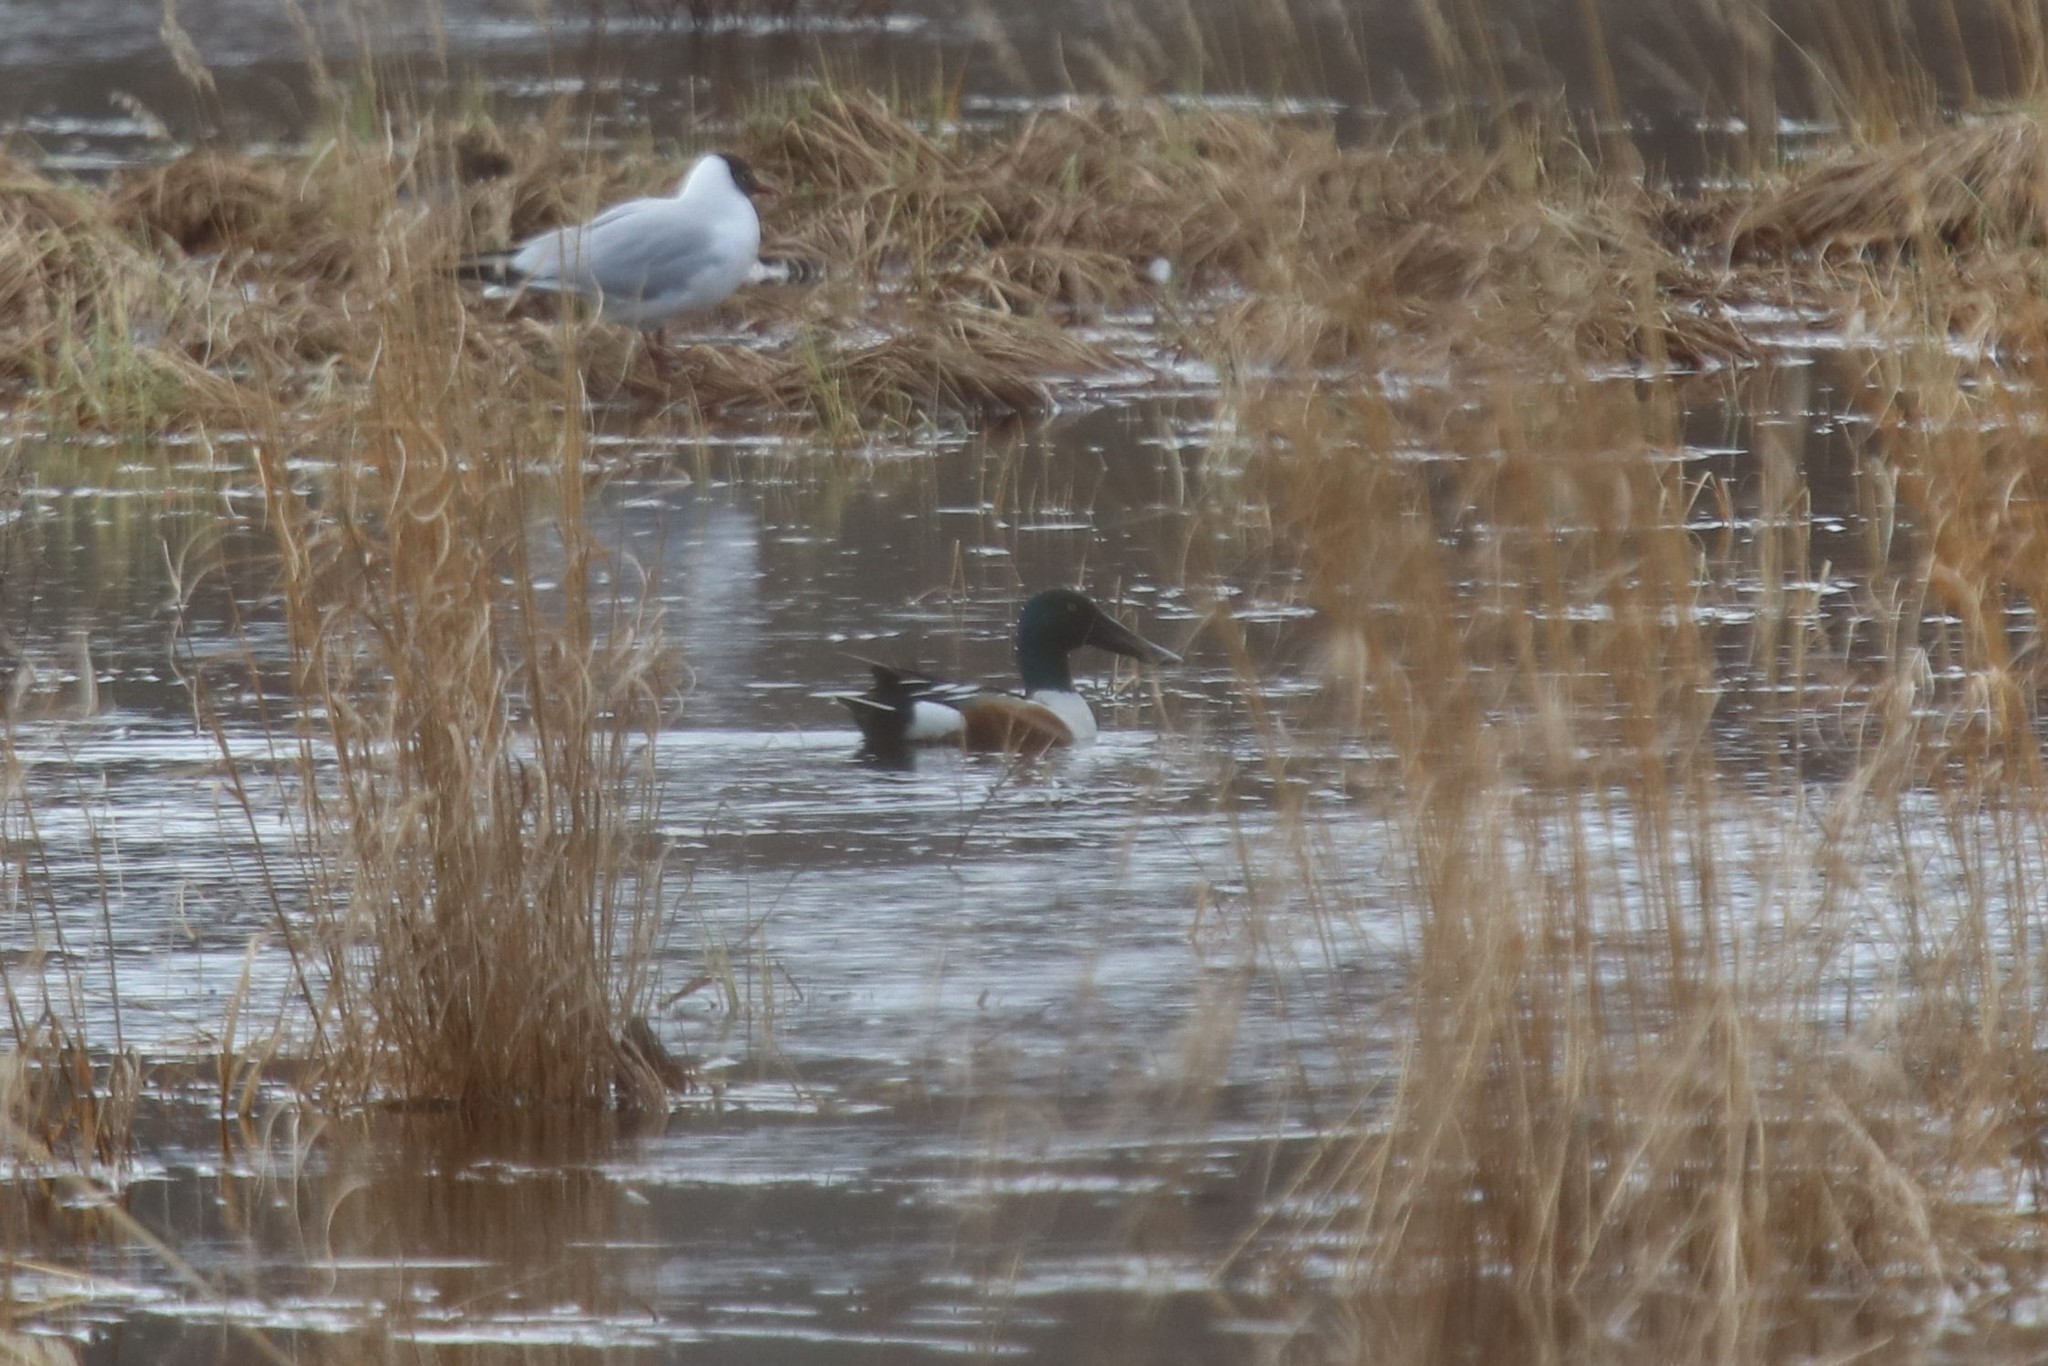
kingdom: Animalia
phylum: Chordata
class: Aves
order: Anseriformes
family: Anatidae
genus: Spatula
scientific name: Spatula clypeata
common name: Northern shoveler
